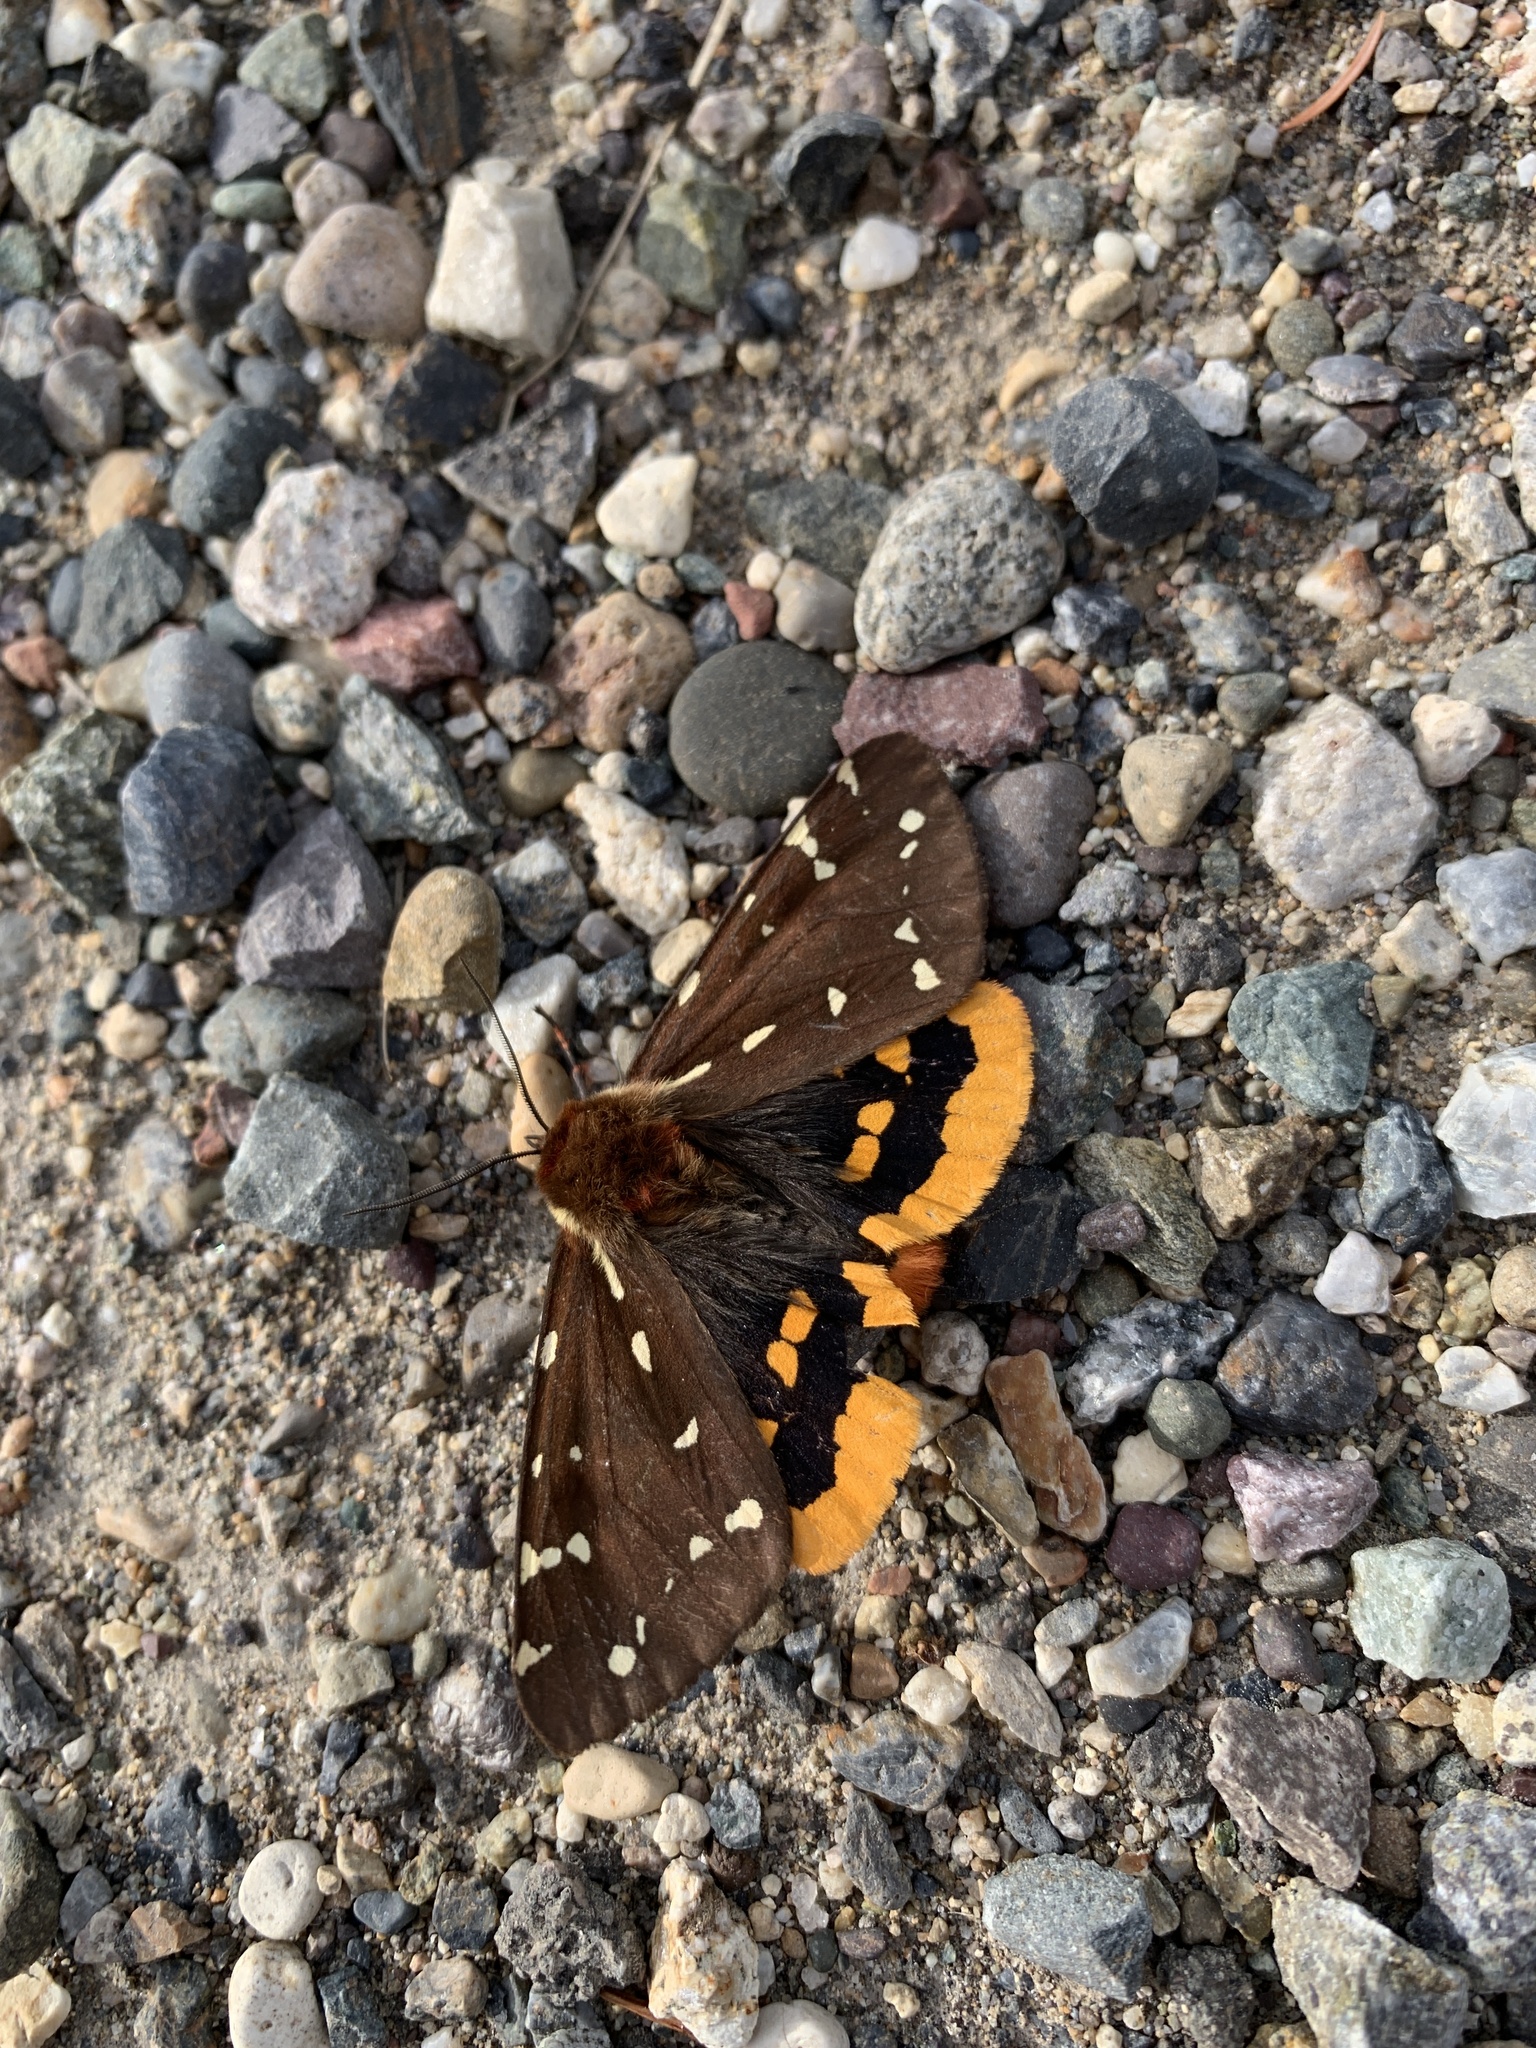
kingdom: Animalia
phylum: Arthropoda
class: Insecta
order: Lepidoptera
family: Erebidae
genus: Arctia
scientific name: Arctia parthenos
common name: St. lawrence tiger moth
